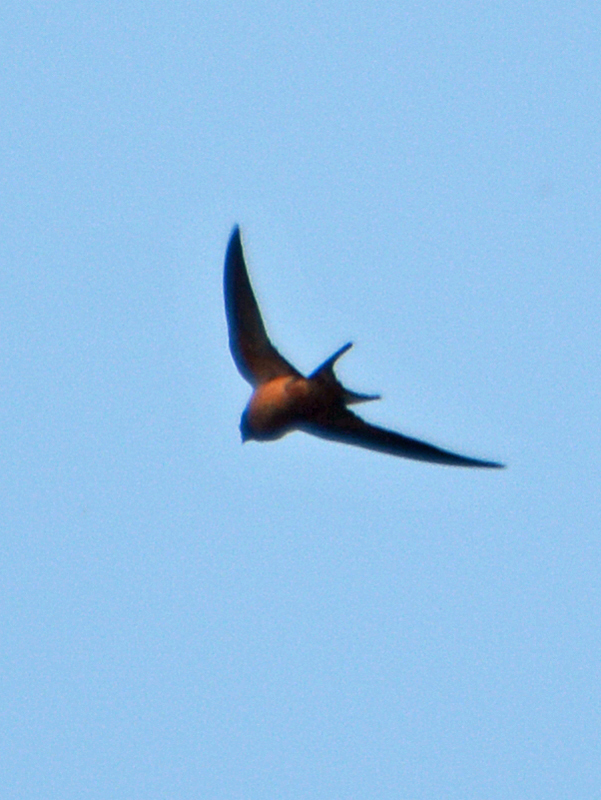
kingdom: Animalia
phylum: Chordata
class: Aves
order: Passeriformes
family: Hirundinidae
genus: Hirundo
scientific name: Hirundo rustica
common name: Barn swallow
